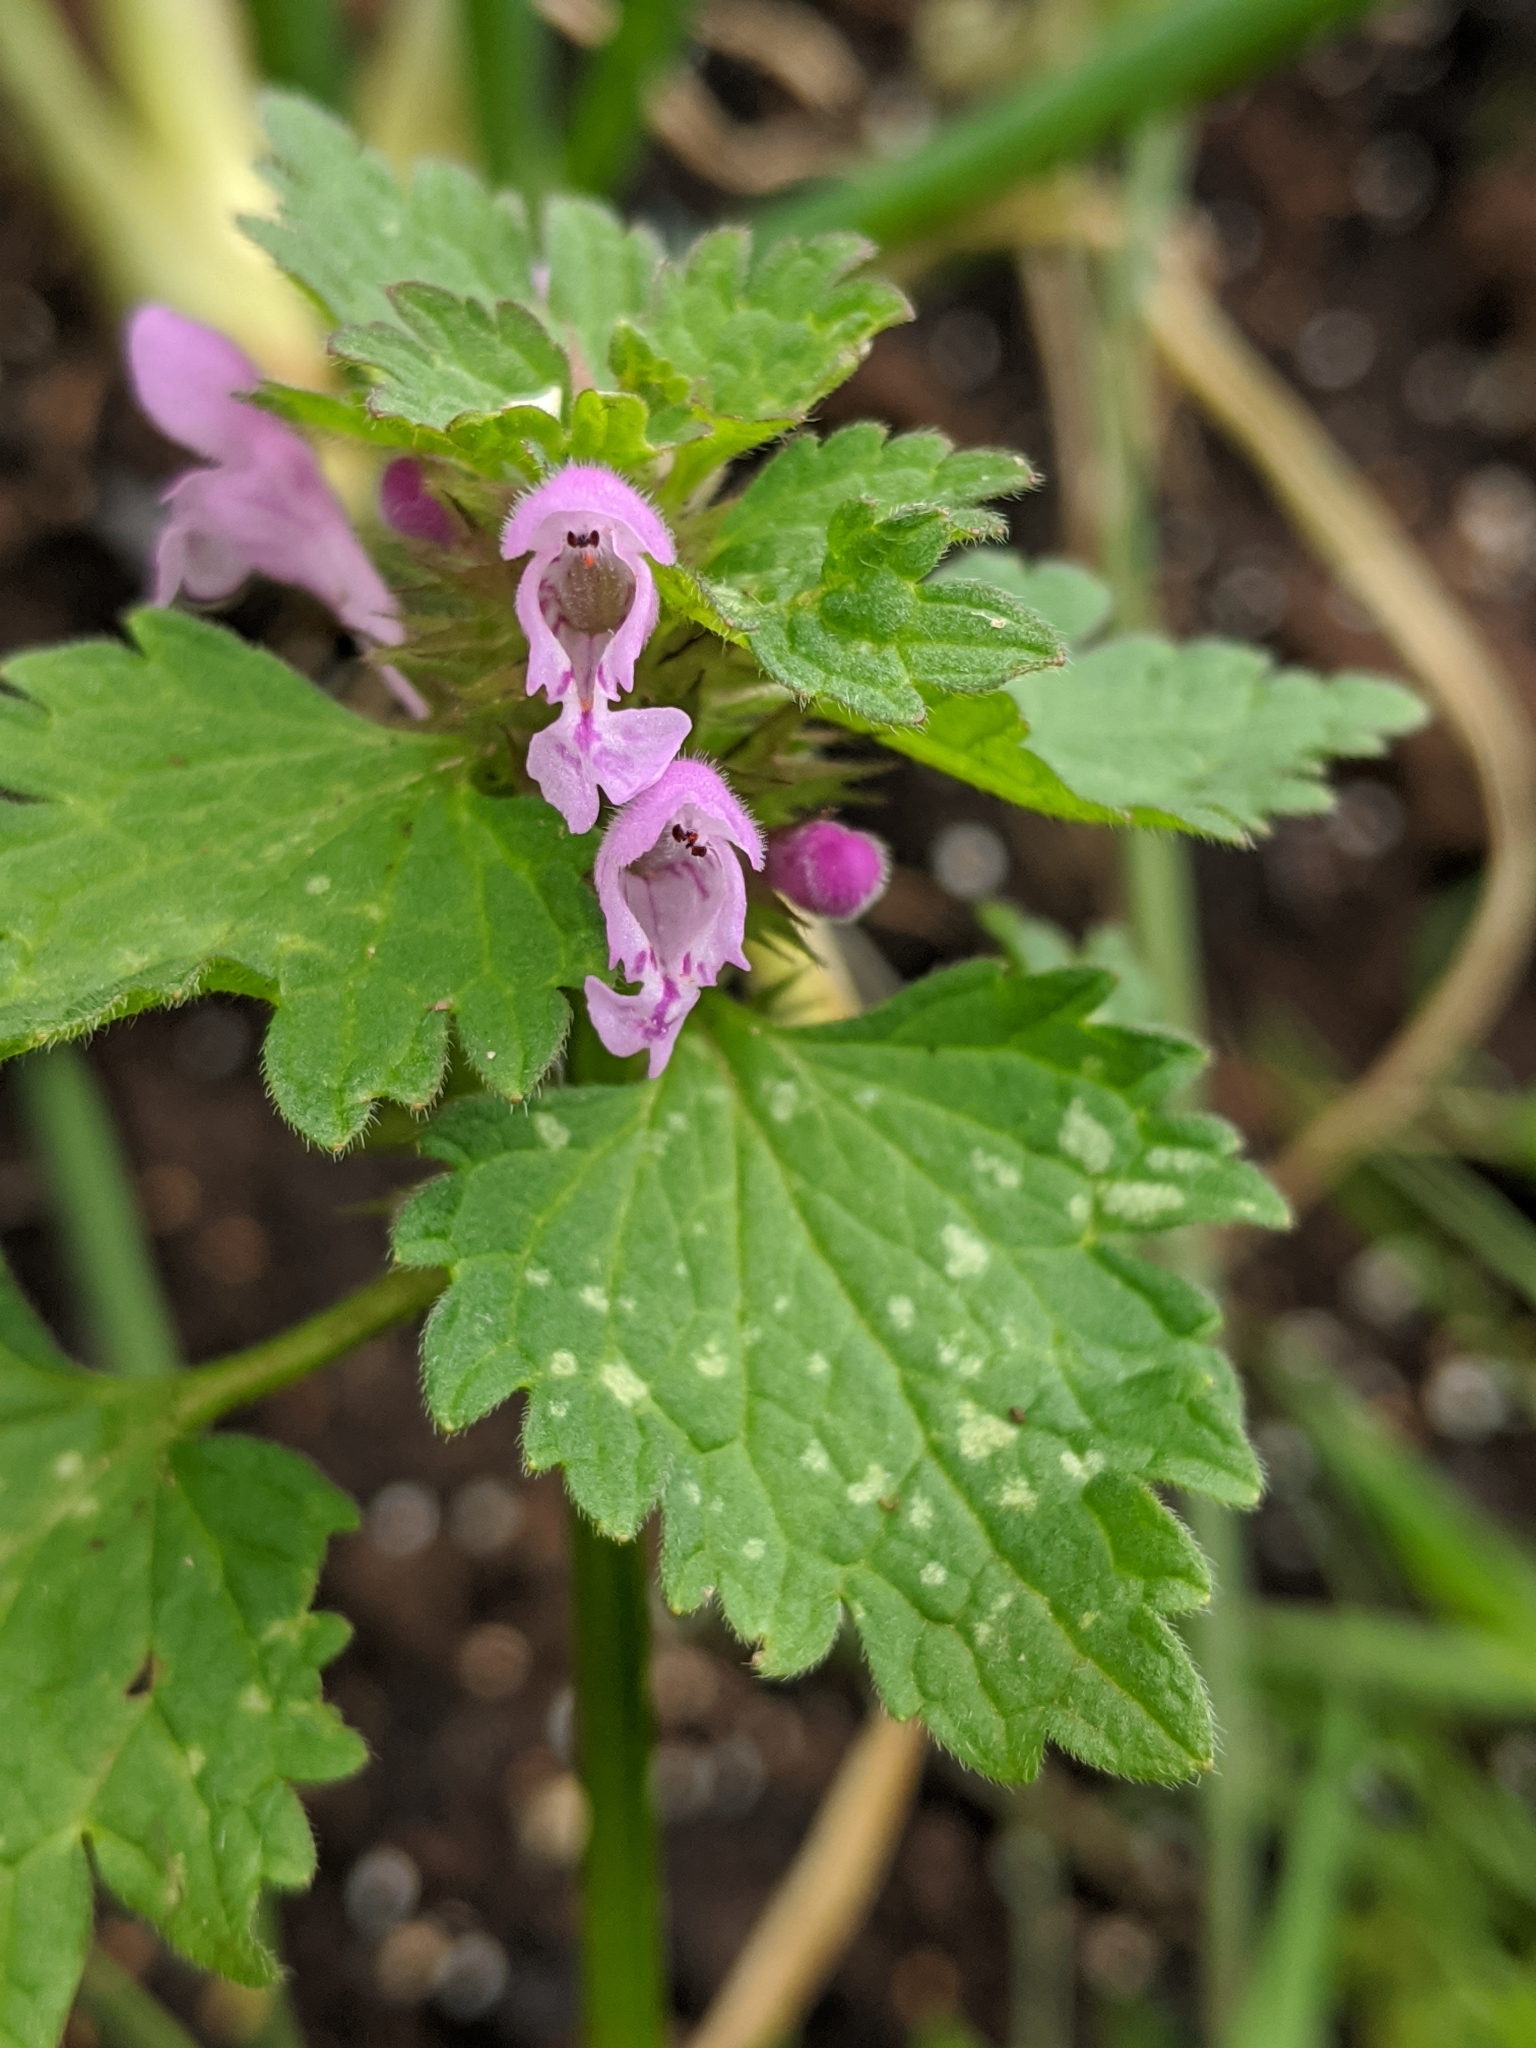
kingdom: Plantae
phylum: Tracheophyta
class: Magnoliopsida
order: Lamiales
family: Lamiaceae
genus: Lamium
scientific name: Lamium hybridum
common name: Cut-leaved dead-nettle
